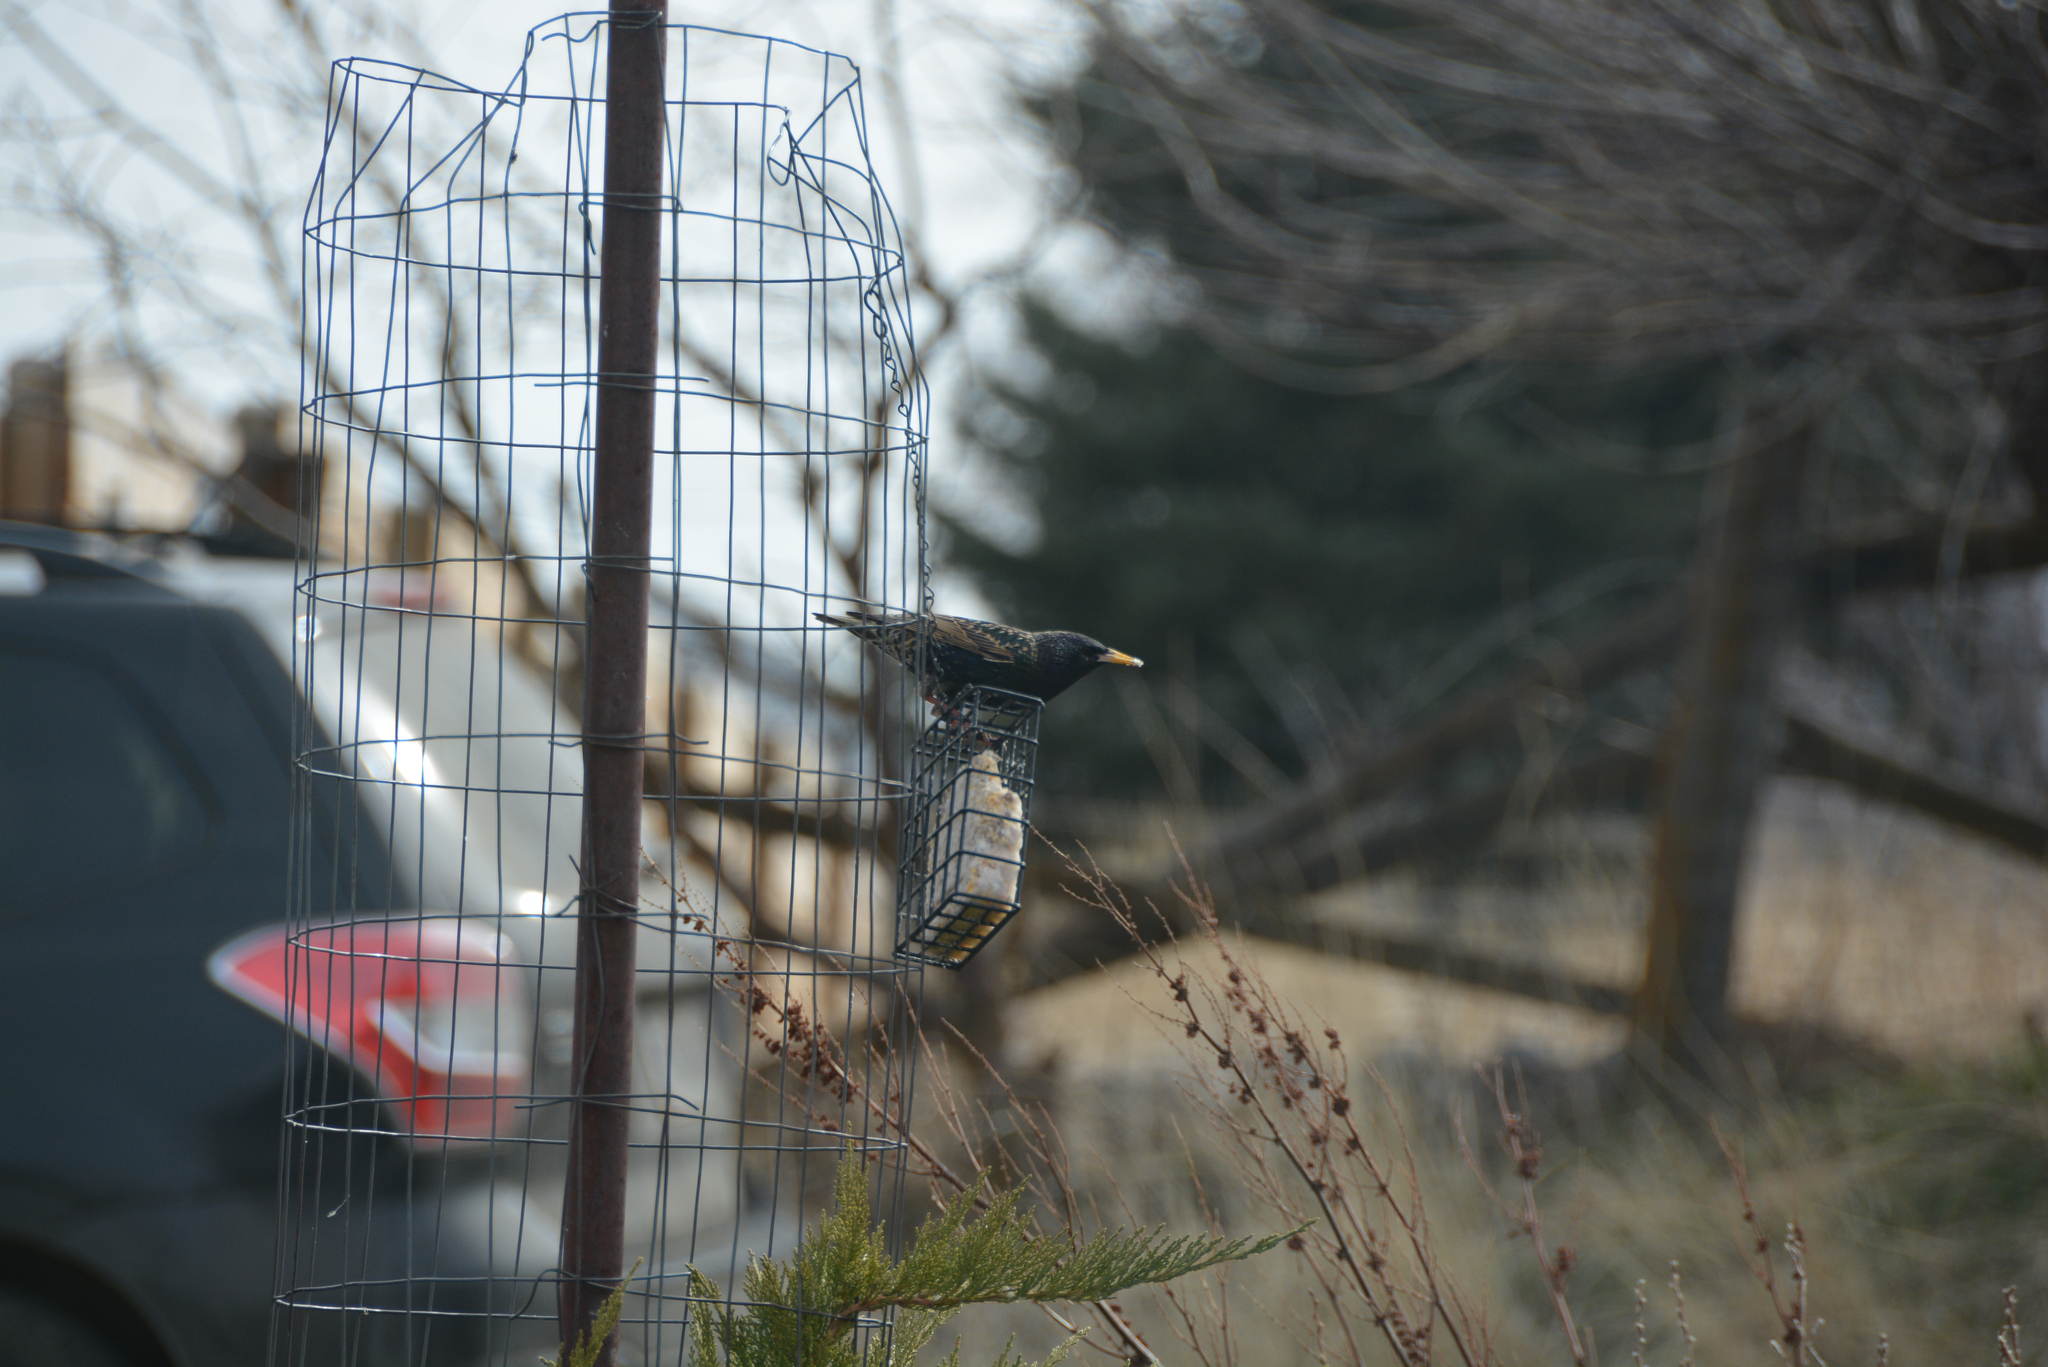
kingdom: Animalia
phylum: Chordata
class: Aves
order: Passeriformes
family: Sturnidae
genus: Sturnus
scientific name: Sturnus vulgaris
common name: Common starling
